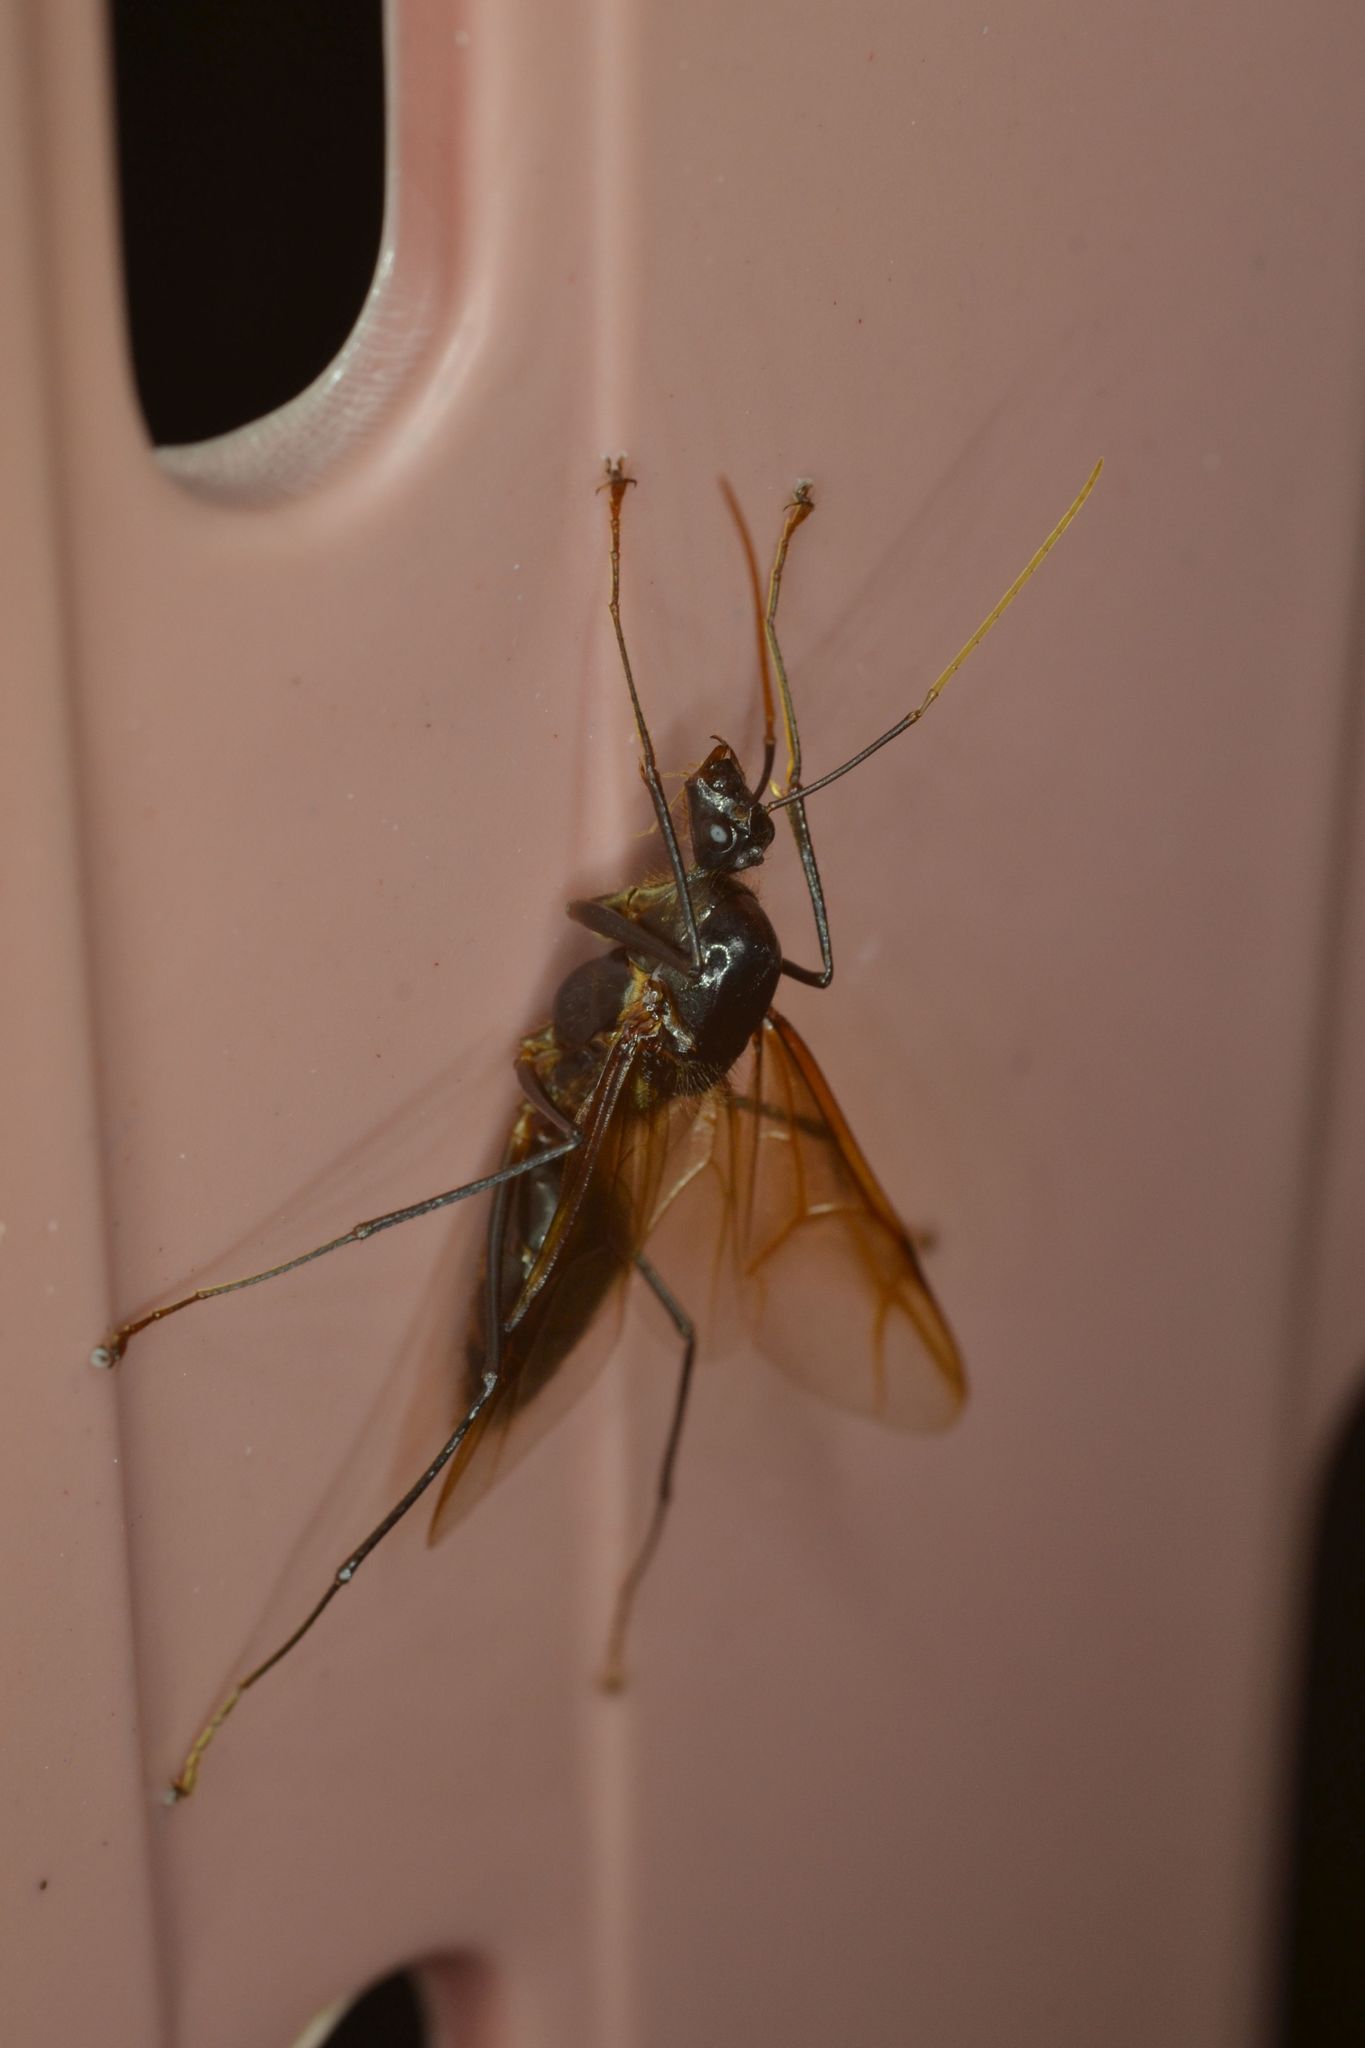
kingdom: Animalia
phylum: Arthropoda
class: Insecta
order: Hymenoptera
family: Formicidae
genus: Dinomyrmex
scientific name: Dinomyrmex
